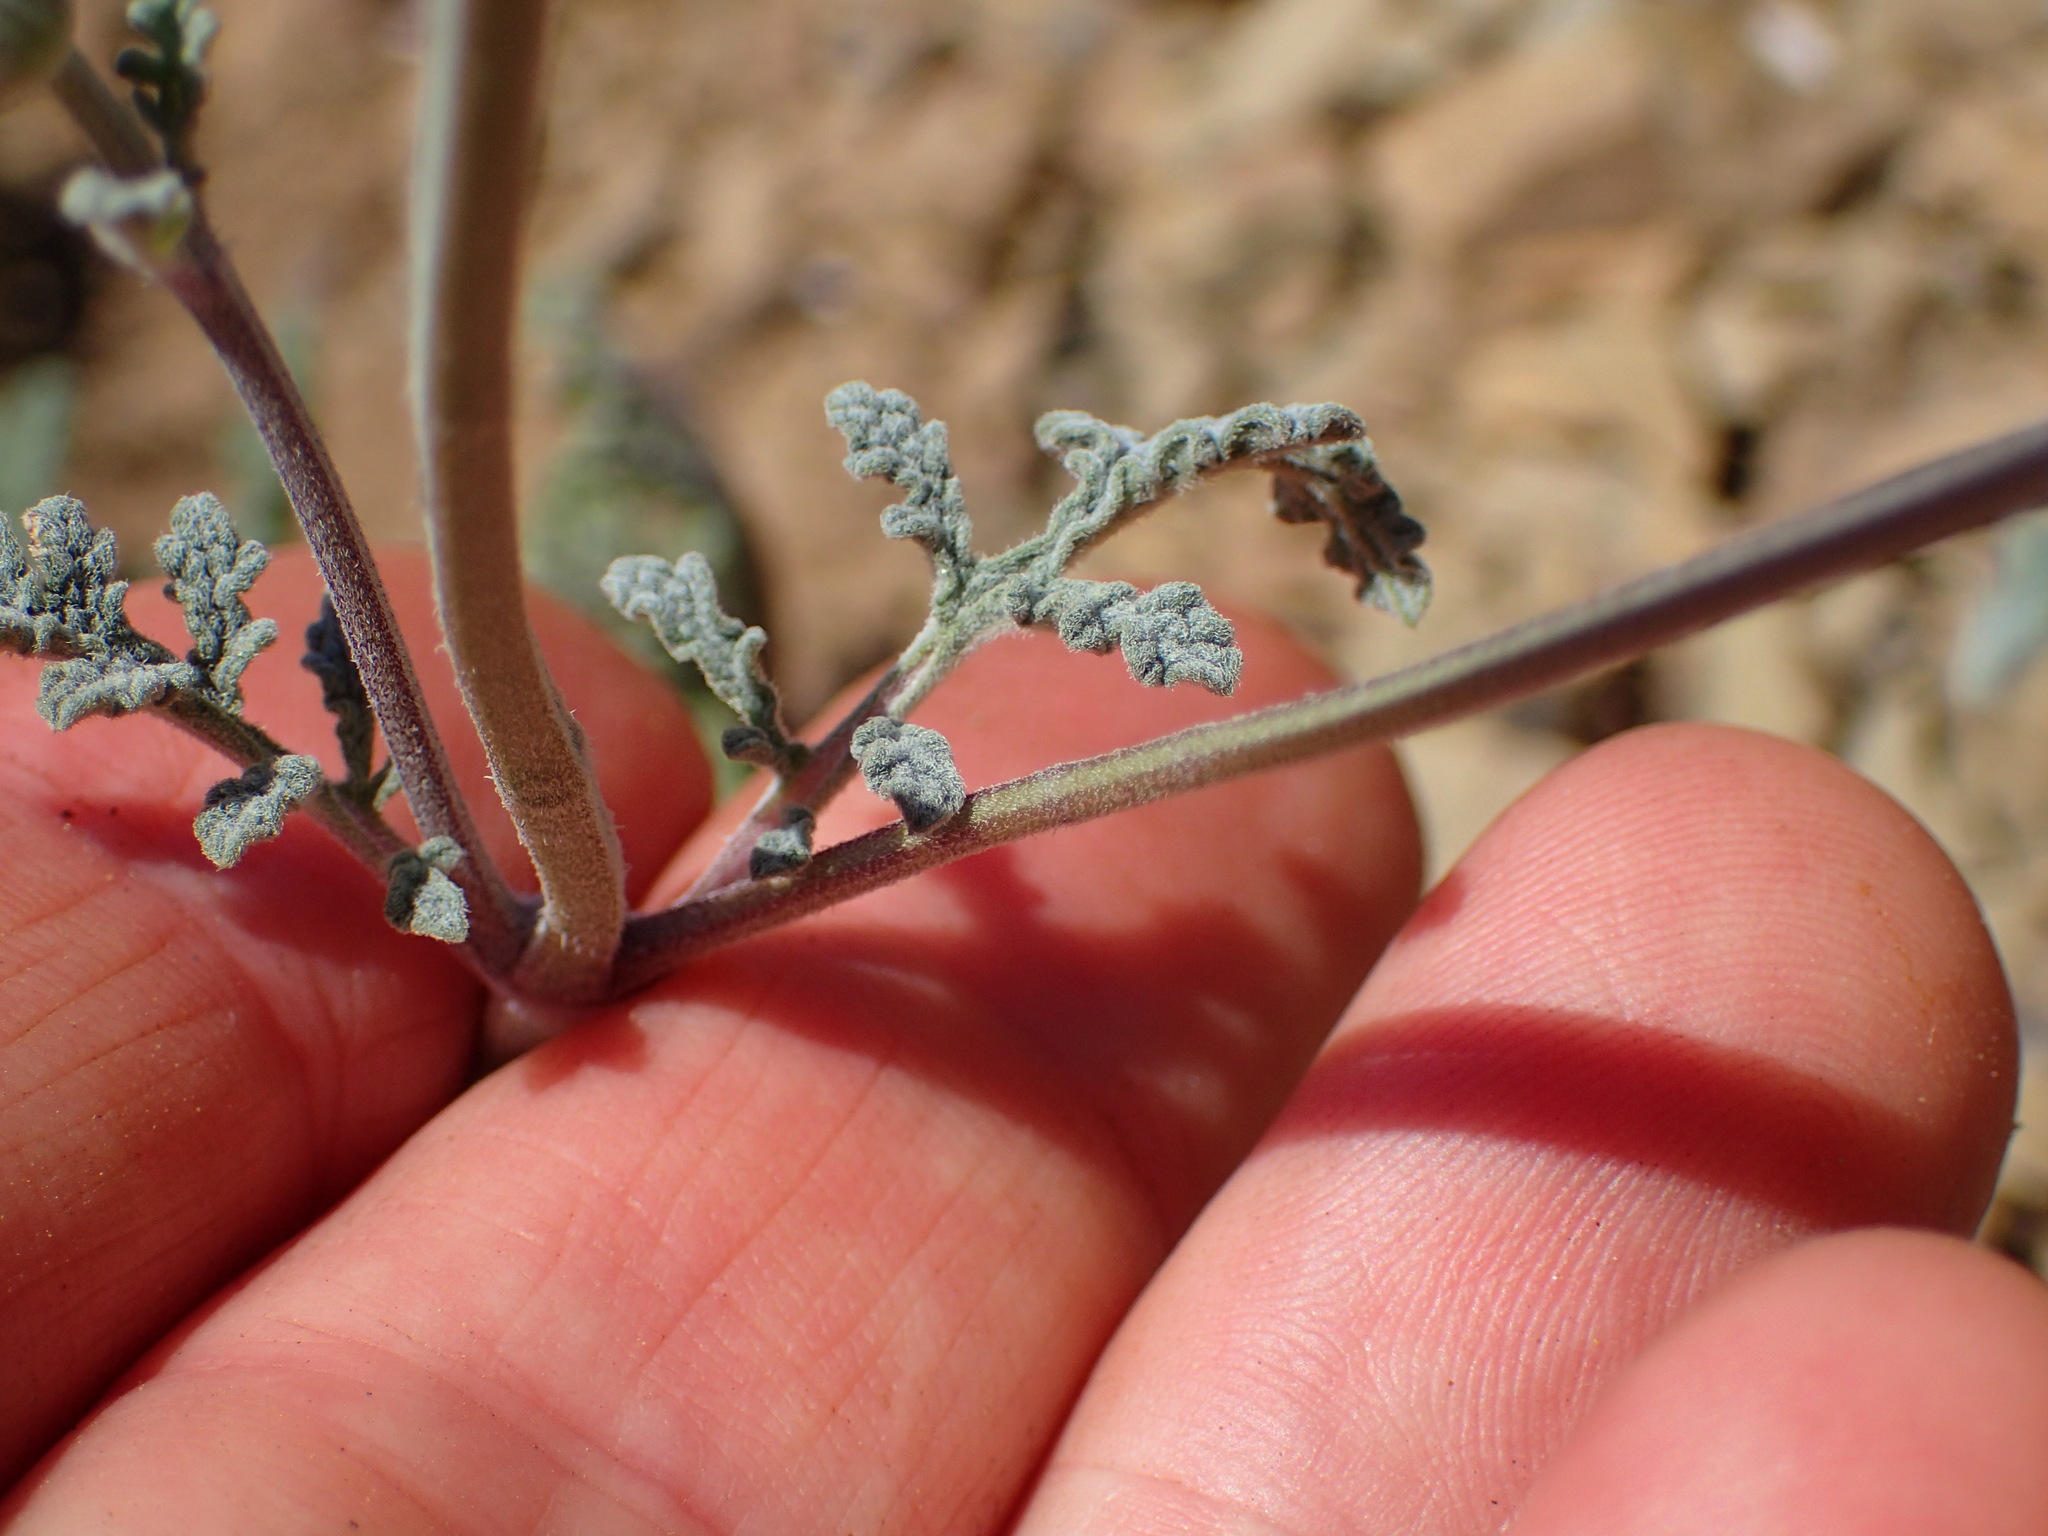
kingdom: Plantae
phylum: Tracheophyta
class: Magnoliopsida
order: Lamiales
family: Lamiaceae
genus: Salvia
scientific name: Salvia columbariae
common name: Chia
